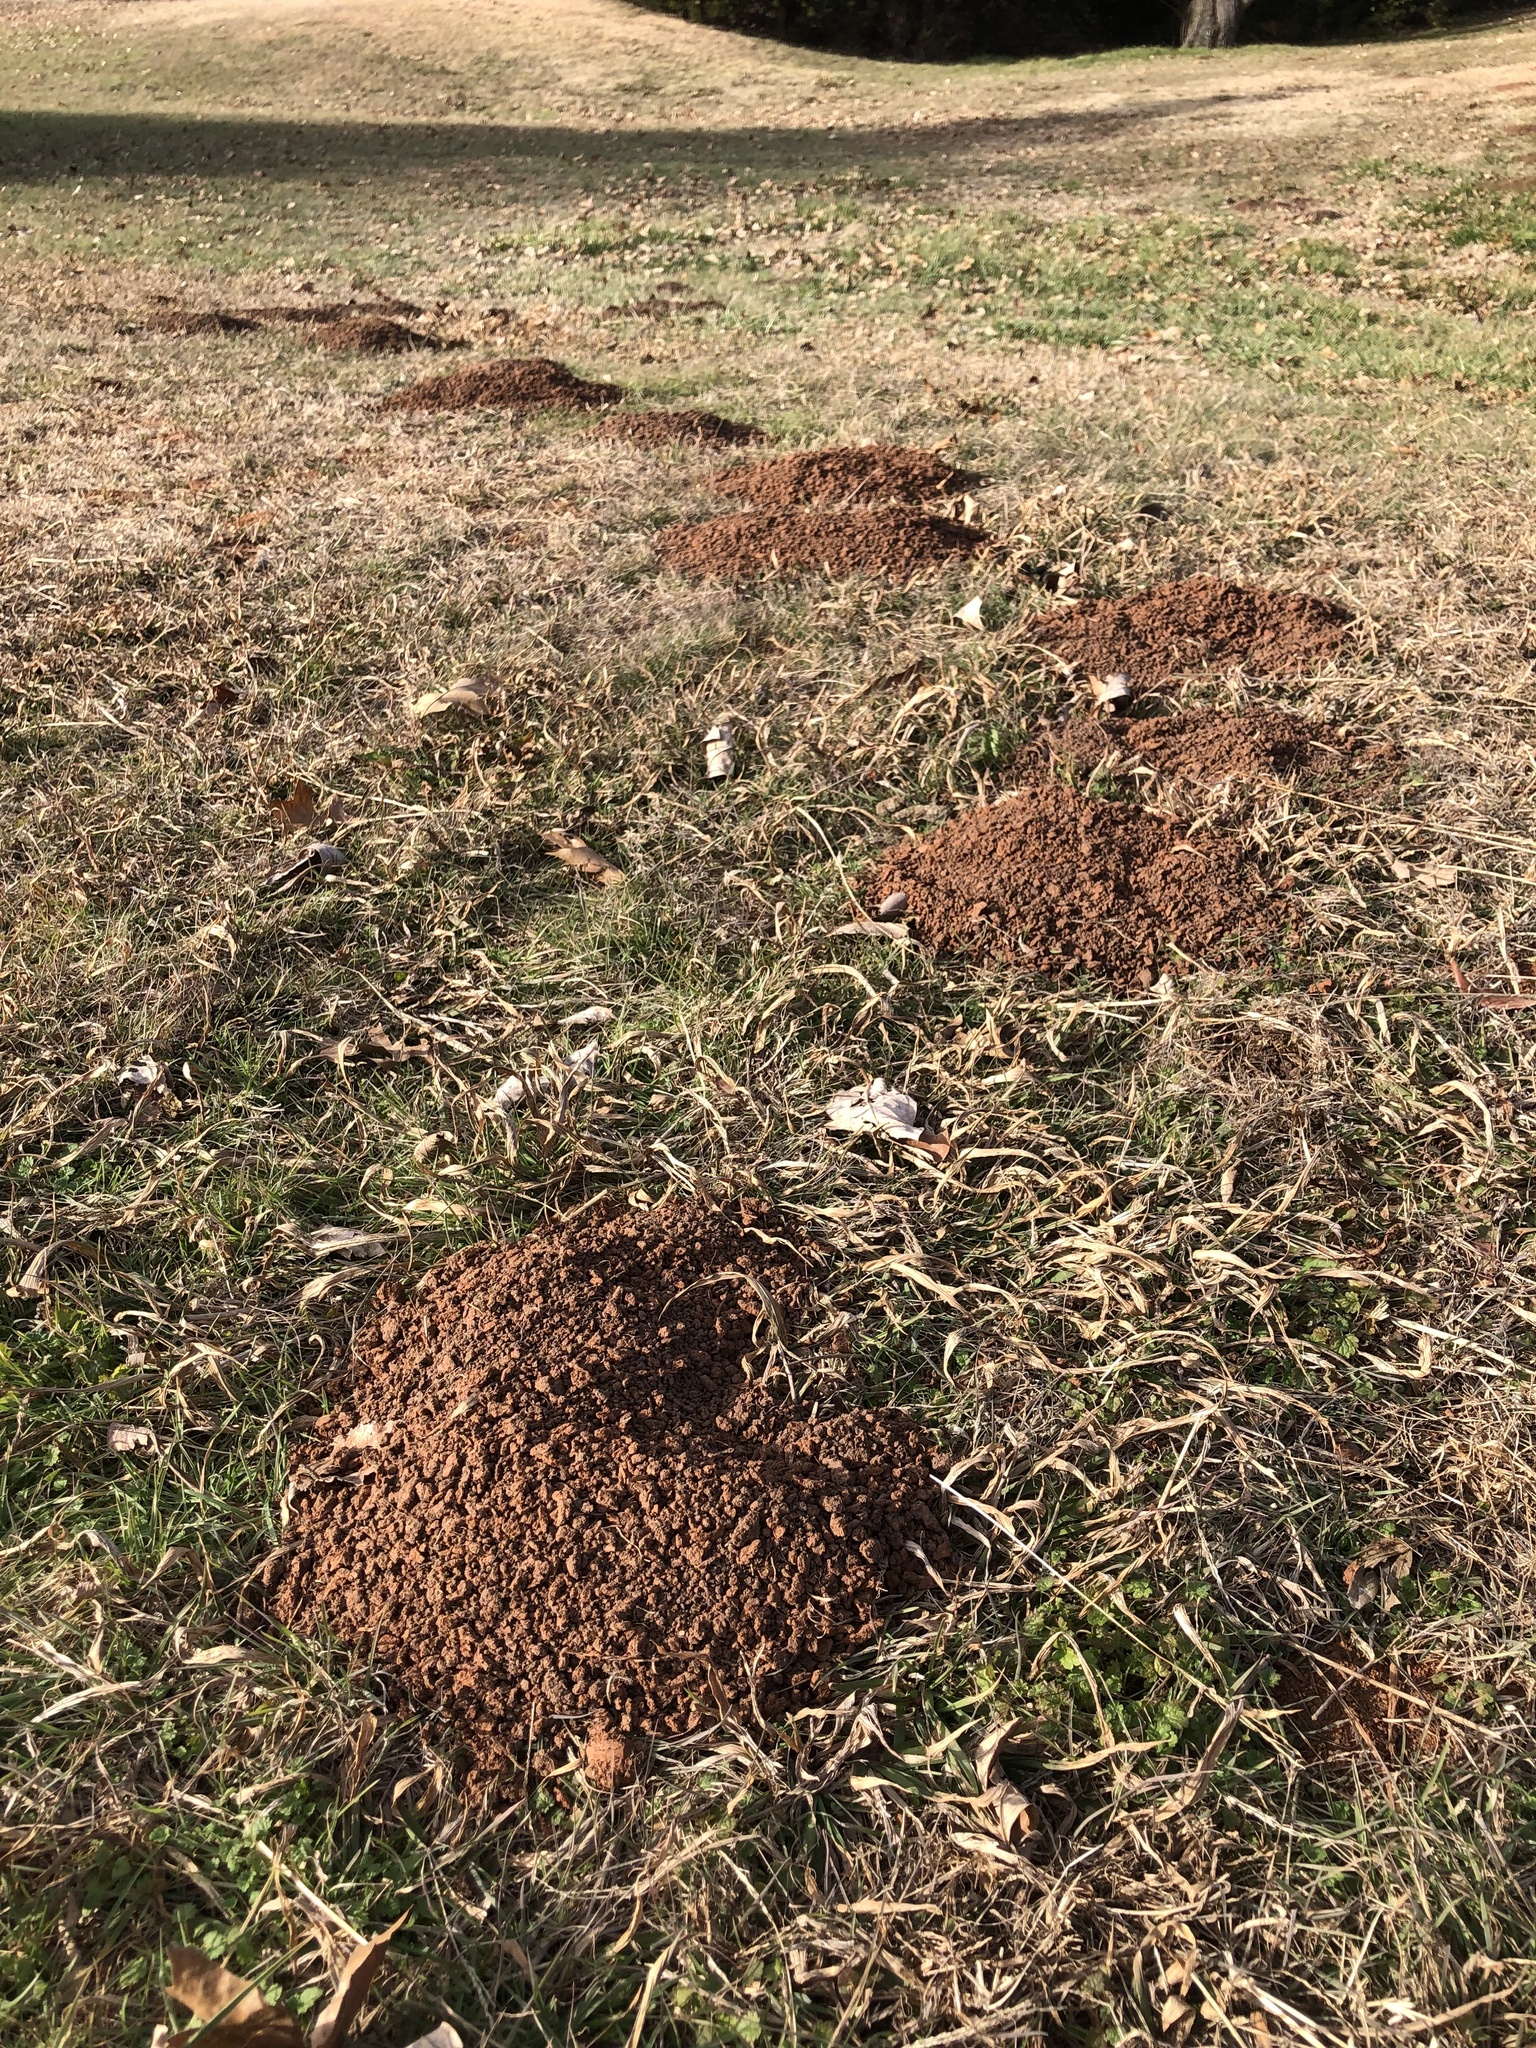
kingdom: Animalia
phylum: Chordata
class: Mammalia
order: Rodentia
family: Geomyidae
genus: Geomys
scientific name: Geomys bursarius
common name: Plains pocket gopher
